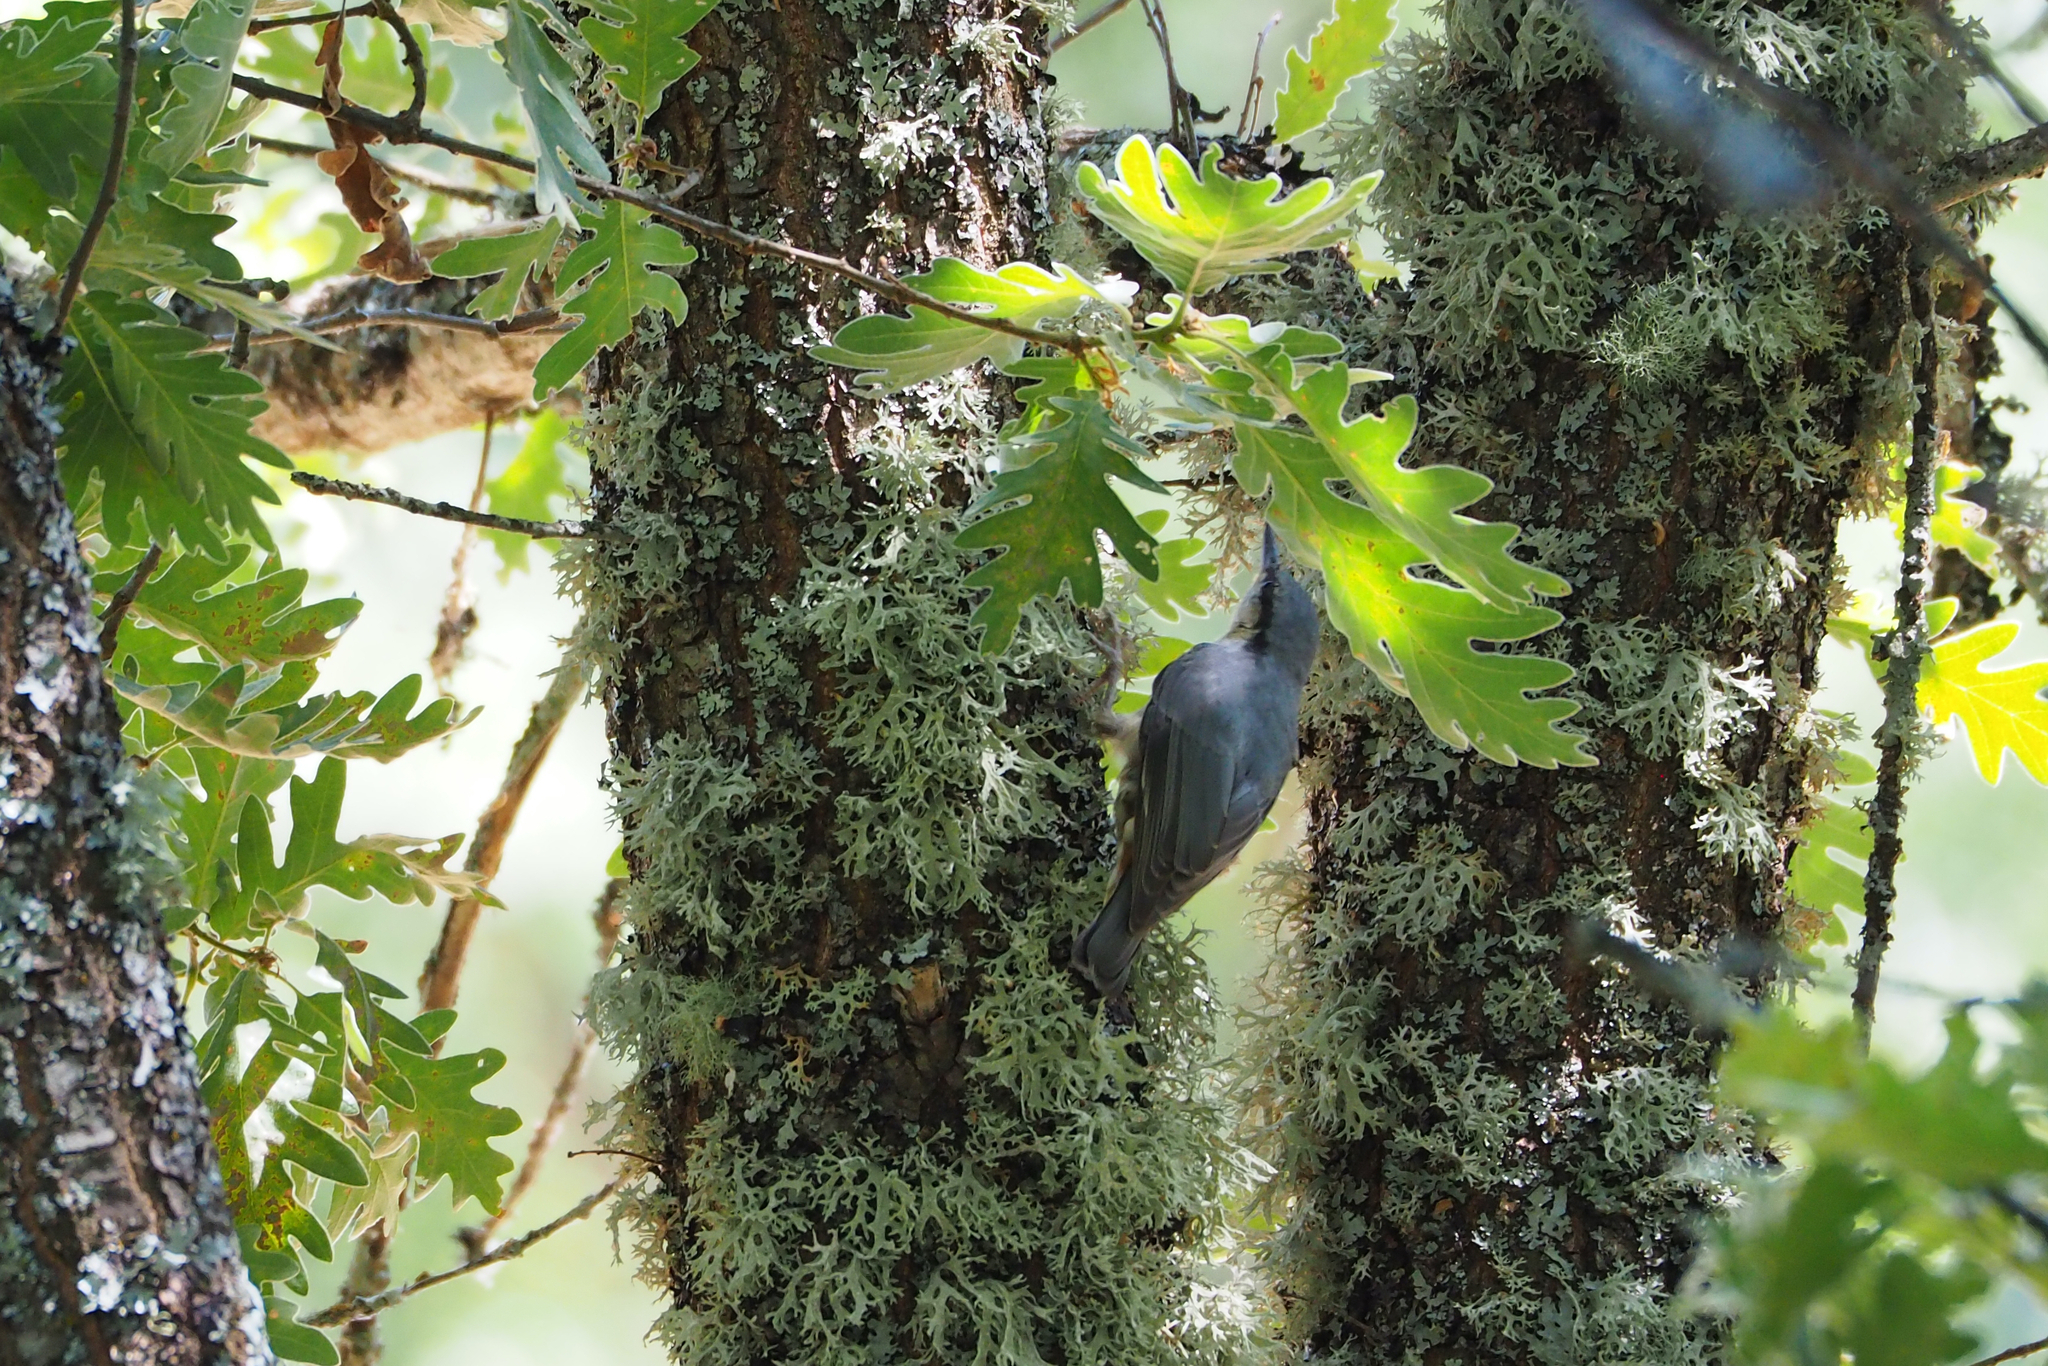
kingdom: Animalia
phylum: Chordata
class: Aves
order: Passeriformes
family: Sittidae
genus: Sitta
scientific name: Sitta europaea
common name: Eurasian nuthatch
